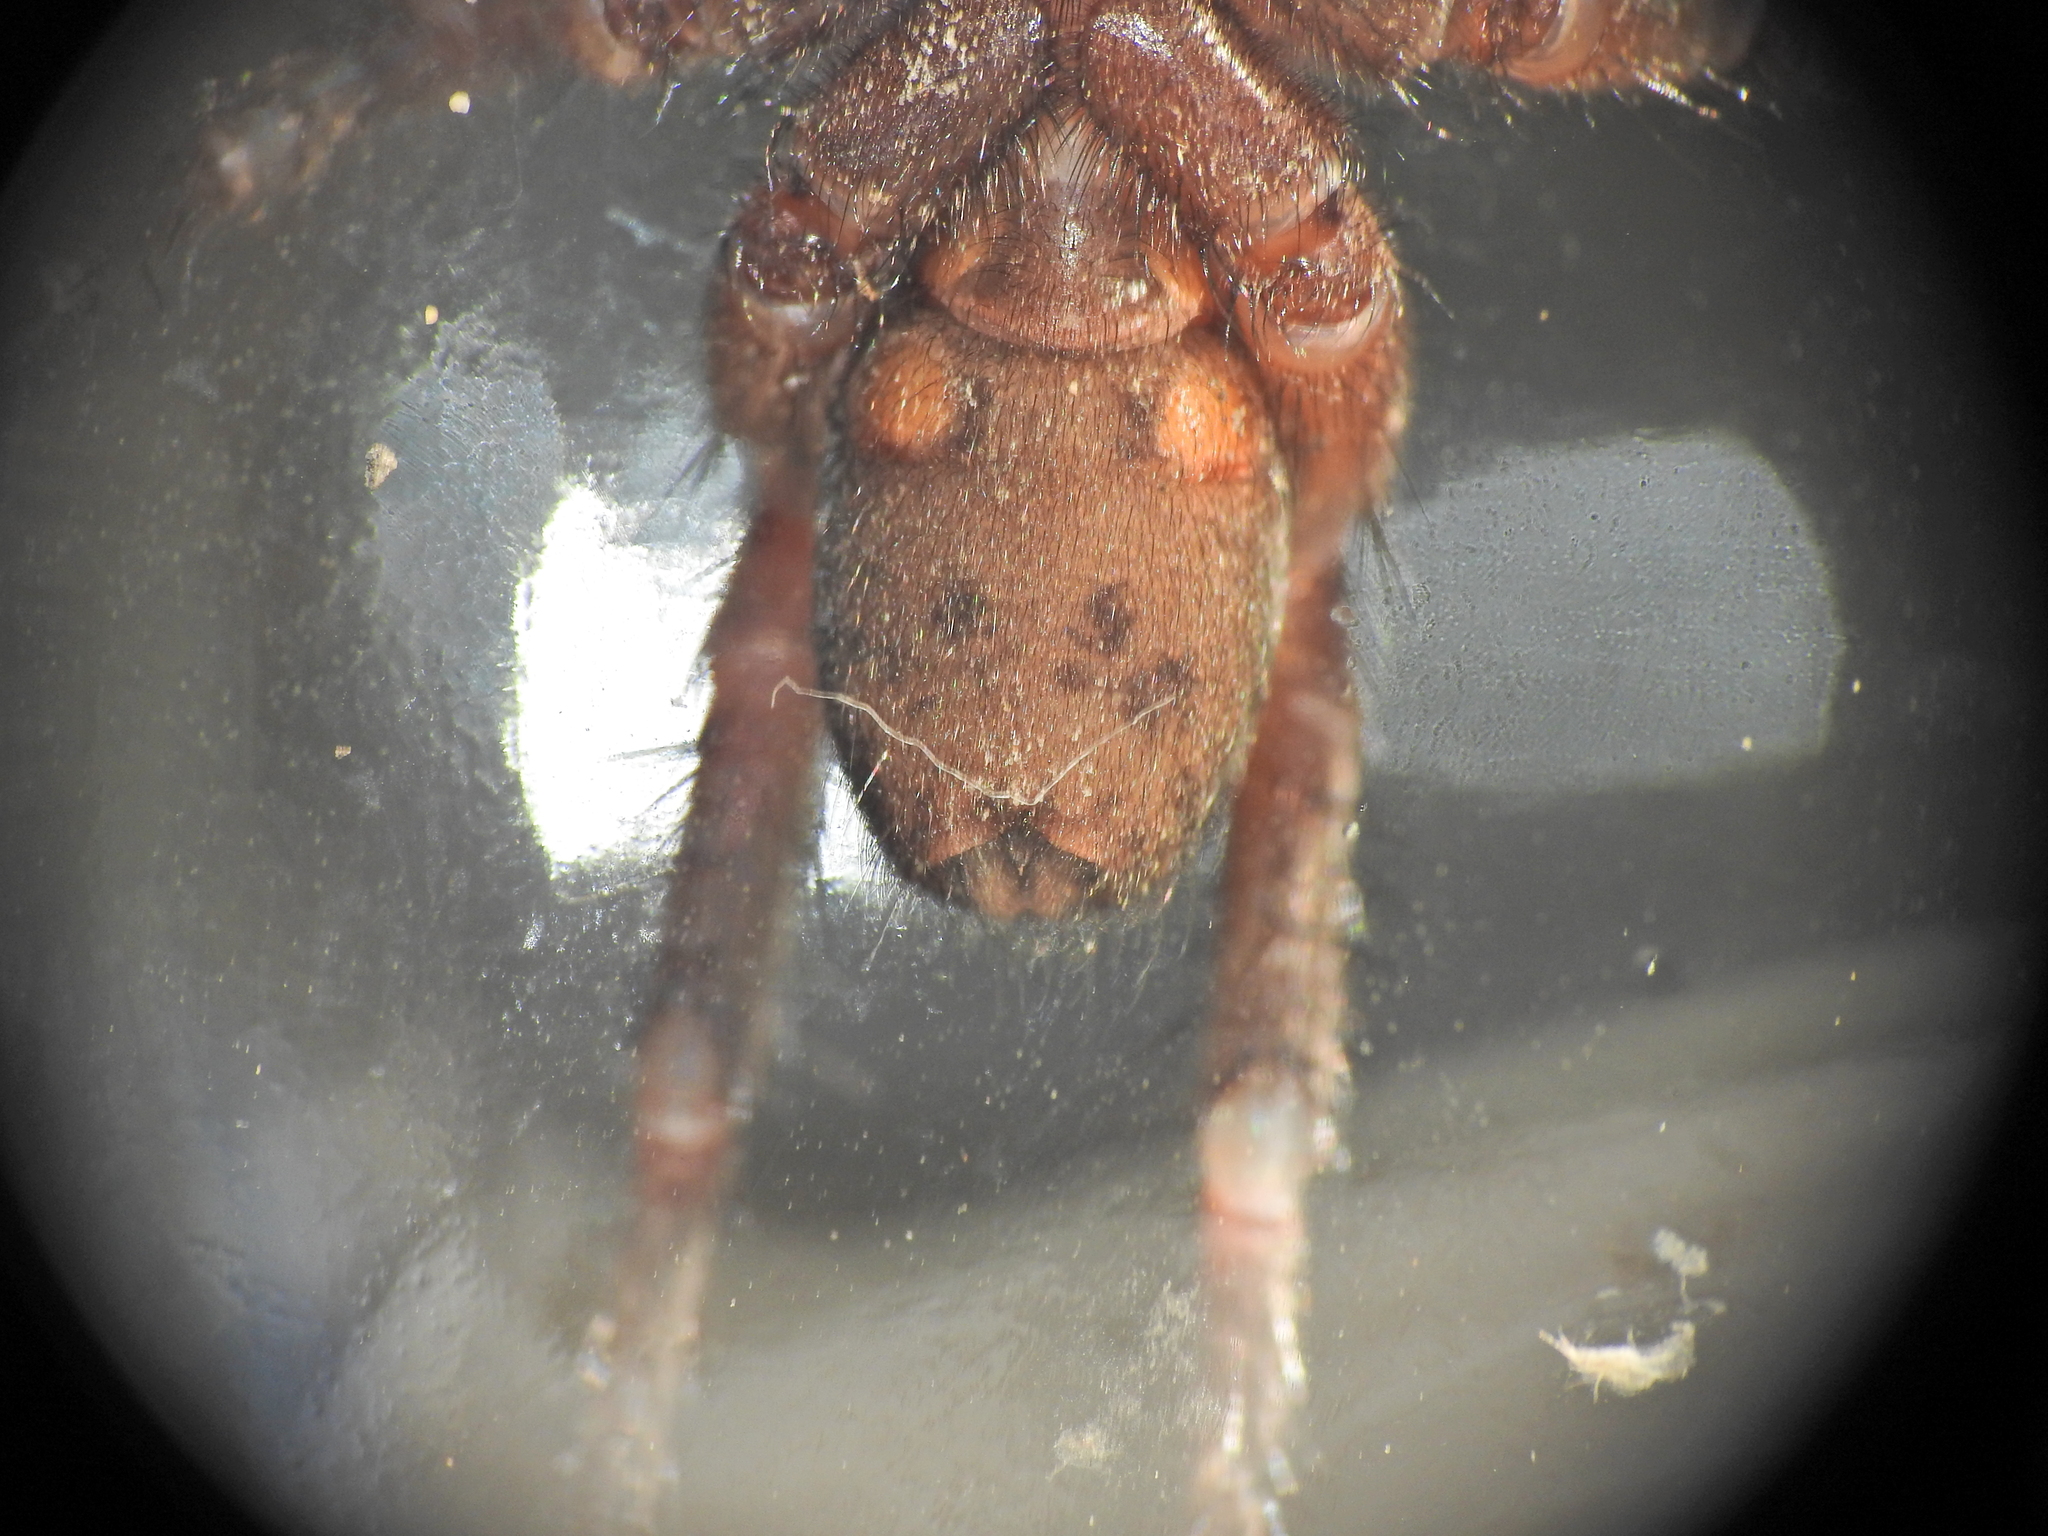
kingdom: Animalia
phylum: Arthropoda
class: Arachnida
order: Araneae
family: Barychelidae
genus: Ozicrypta
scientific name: Ozicrypta cooloola
